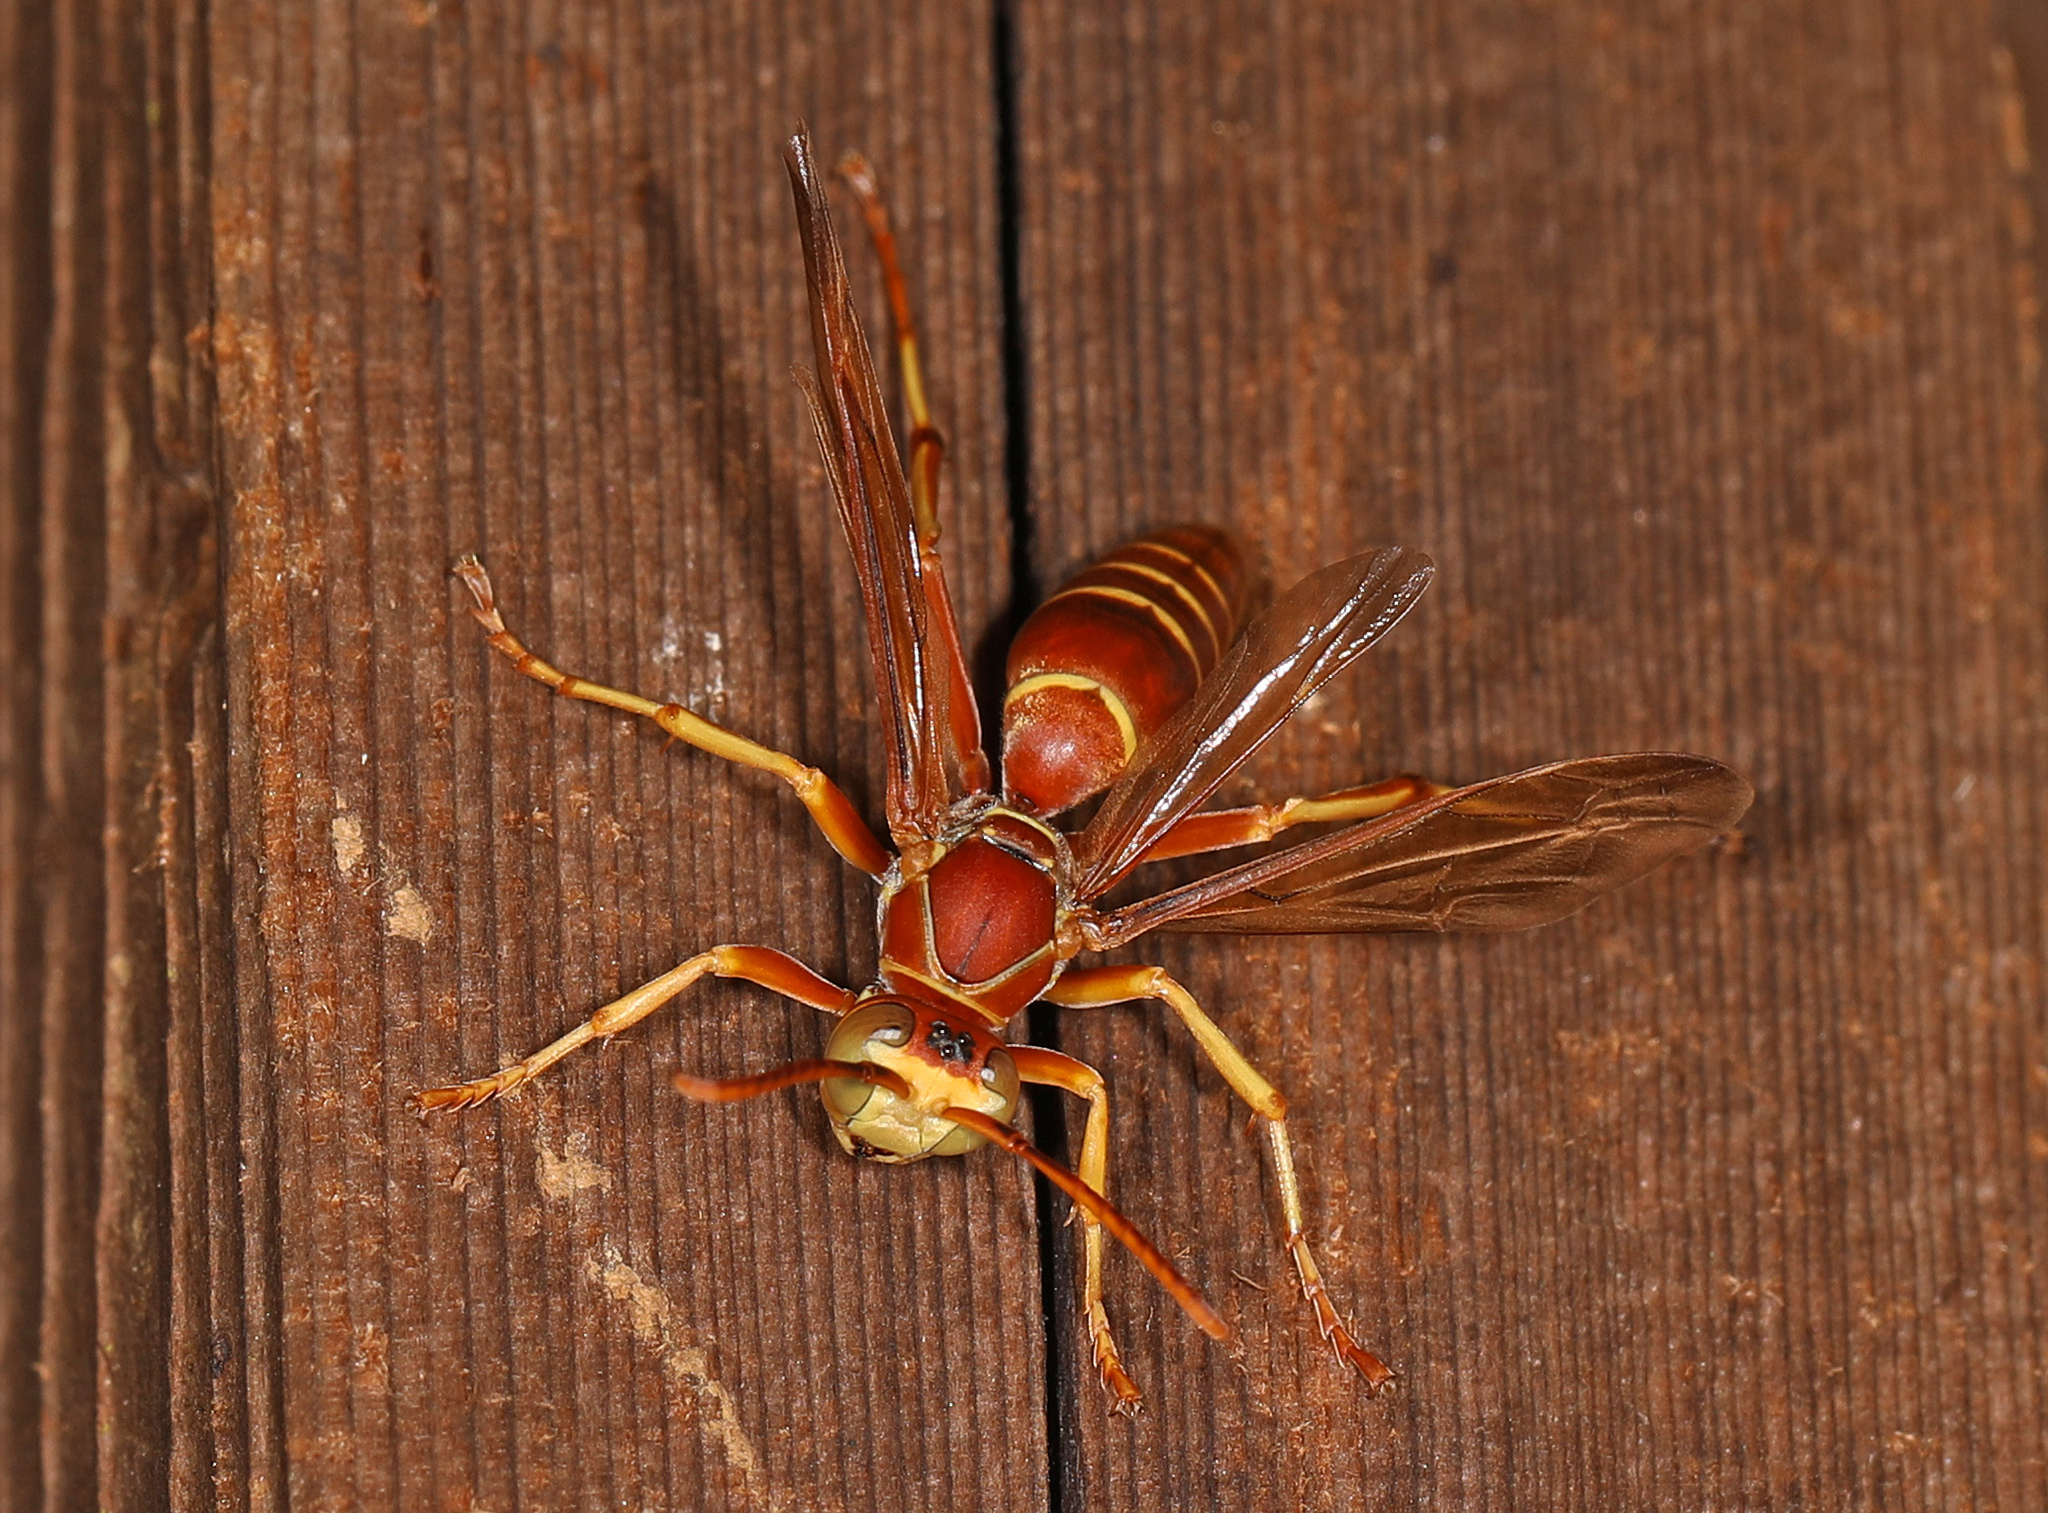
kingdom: Animalia
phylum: Arthropoda
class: Insecta
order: Hymenoptera
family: Eumenidae
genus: Polistes
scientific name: Polistes bellicosus
